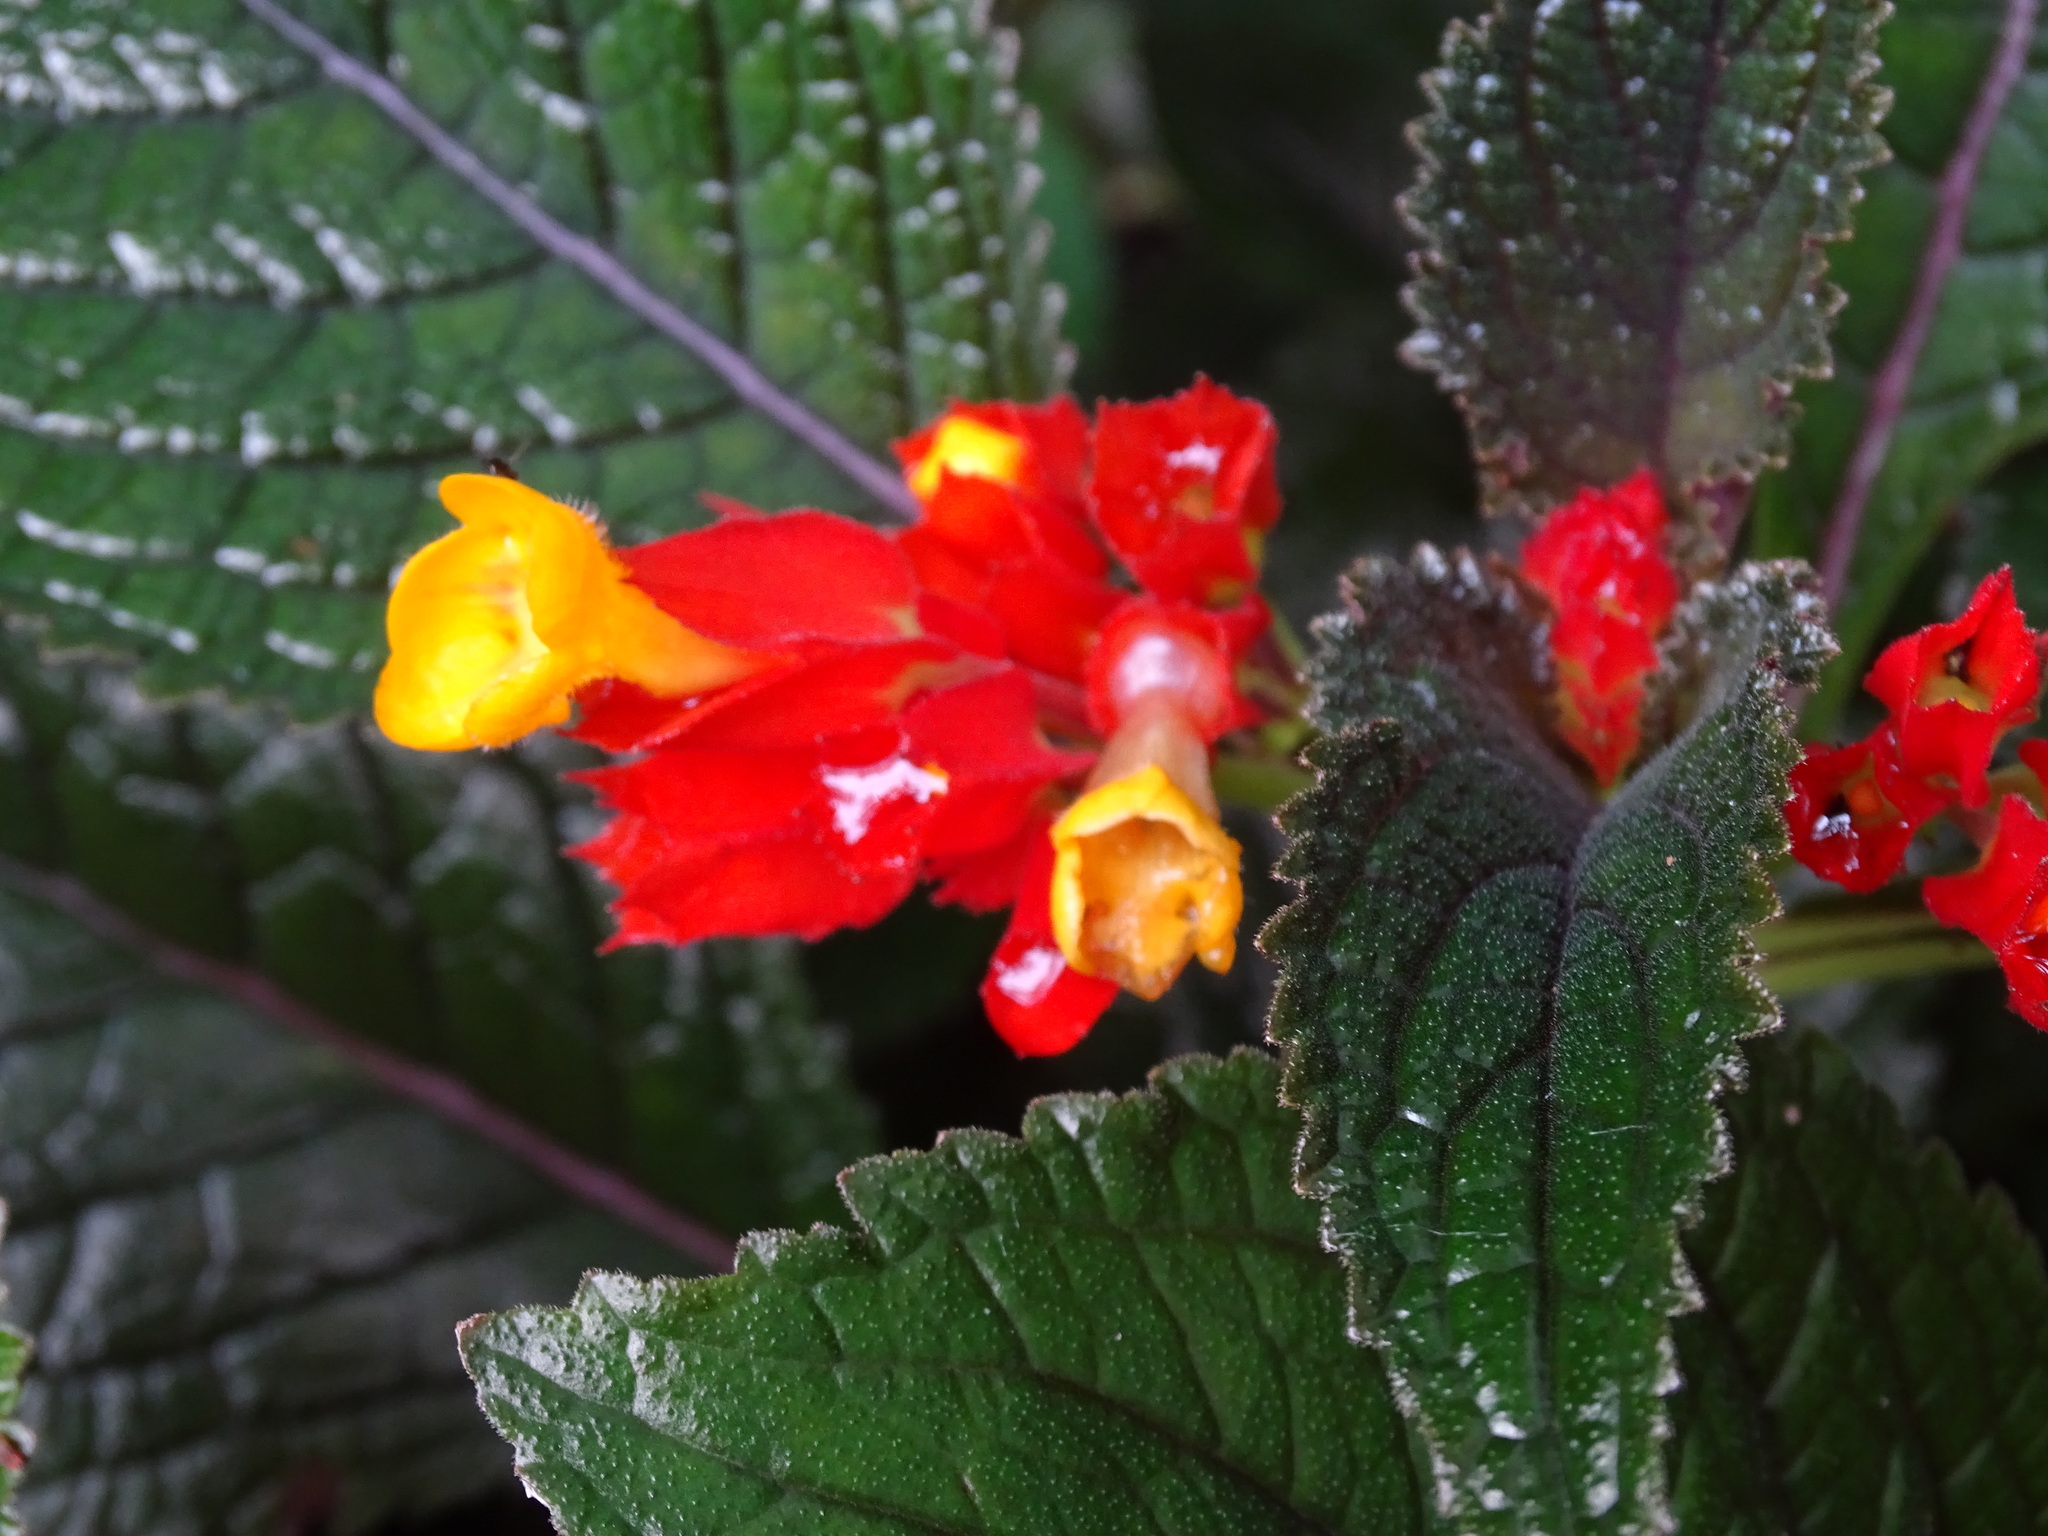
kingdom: Plantae
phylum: Tracheophyta
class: Magnoliopsida
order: Lamiales
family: Gesneriaceae
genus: Chrysothemis
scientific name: Chrysothemis pulchella
